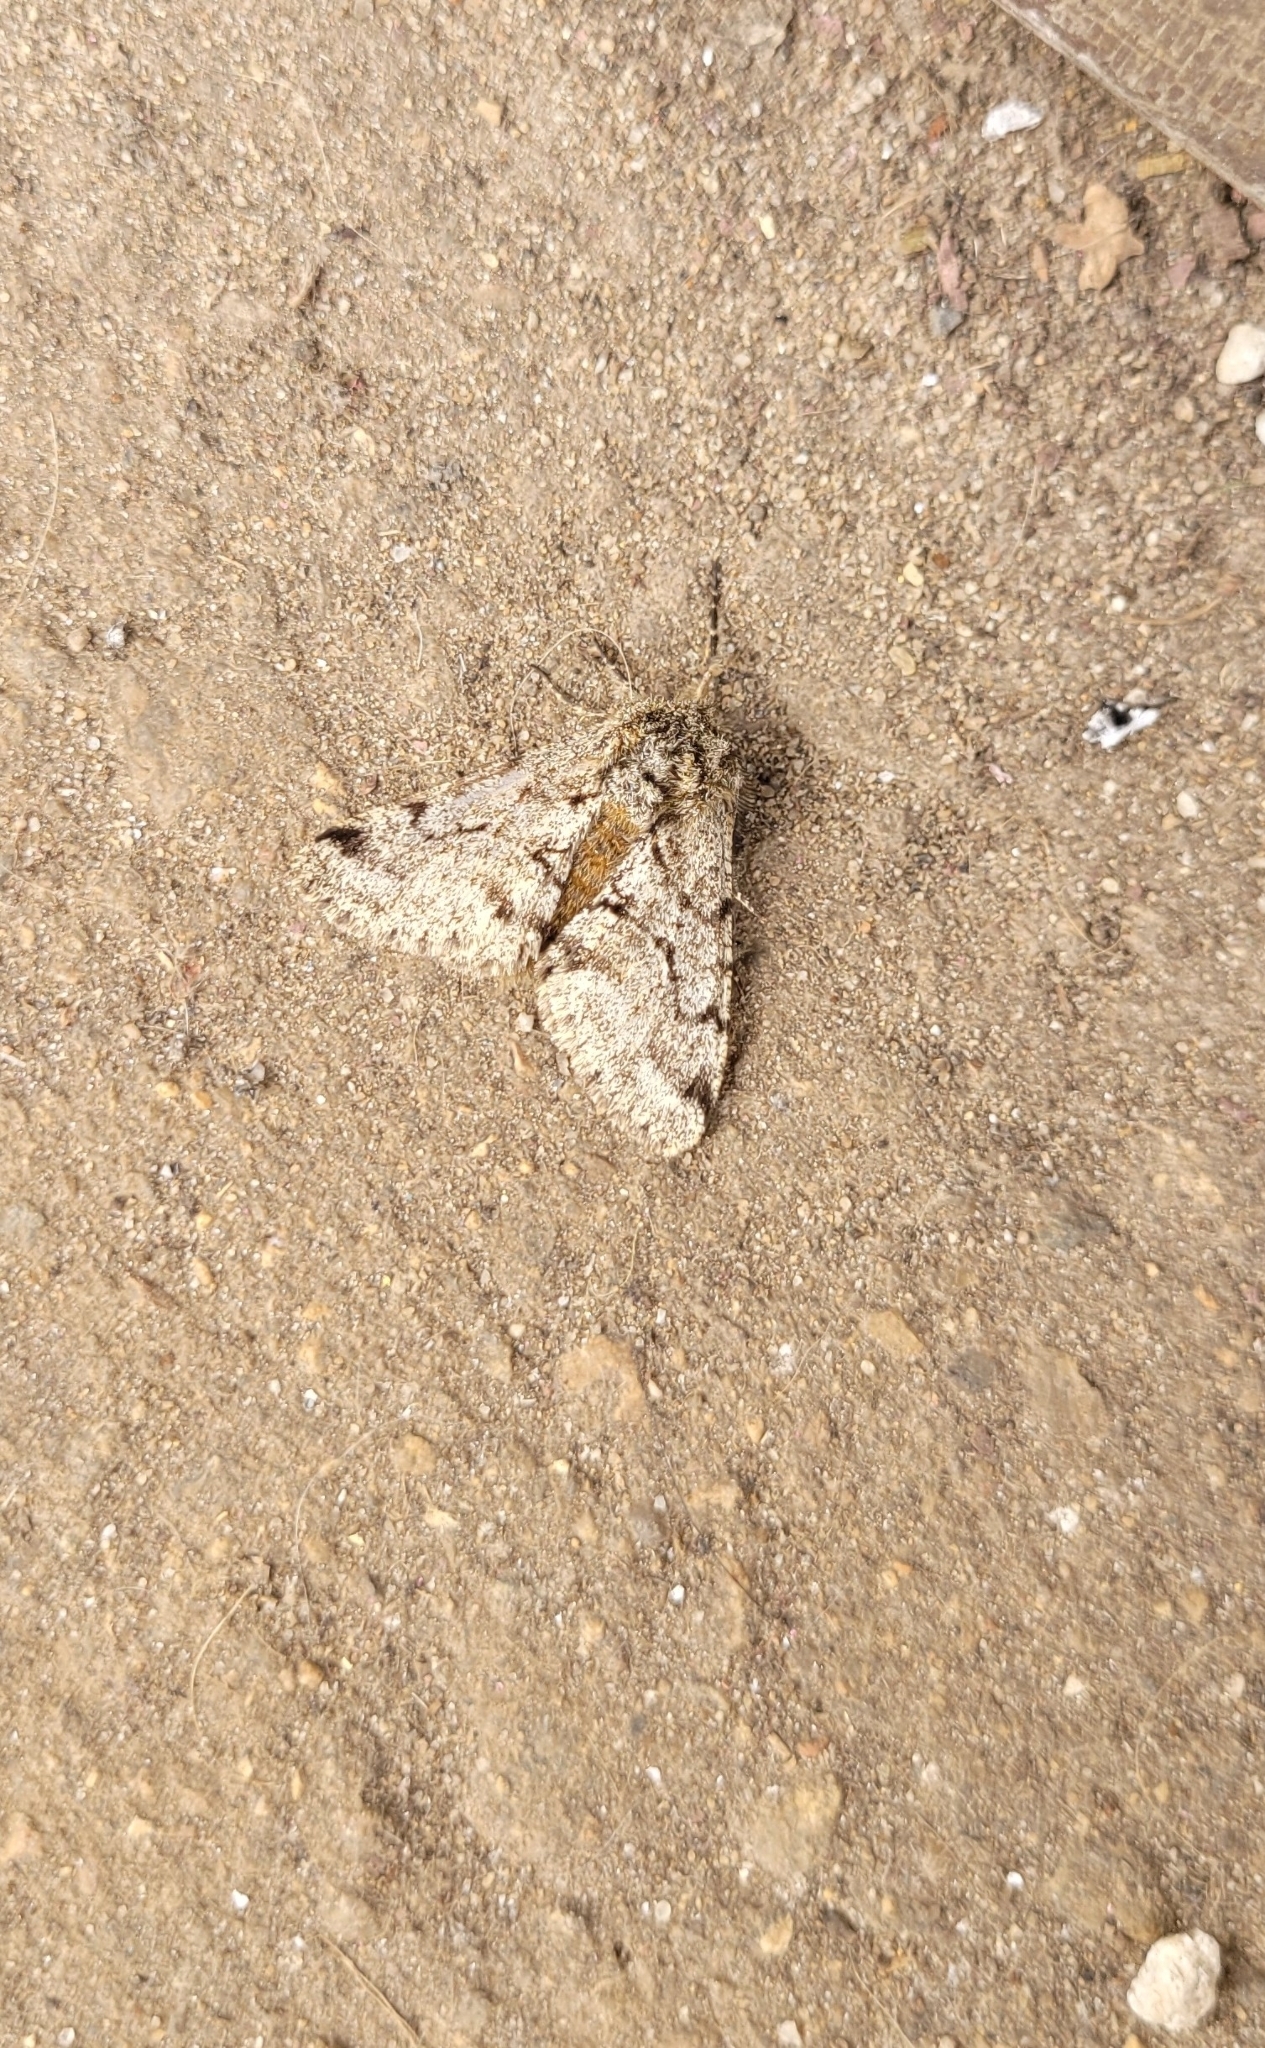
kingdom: Animalia
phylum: Arthropoda
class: Insecta
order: Lepidoptera
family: Geometridae
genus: Lycia
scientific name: Lycia hirtaria
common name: Brindled beauty
